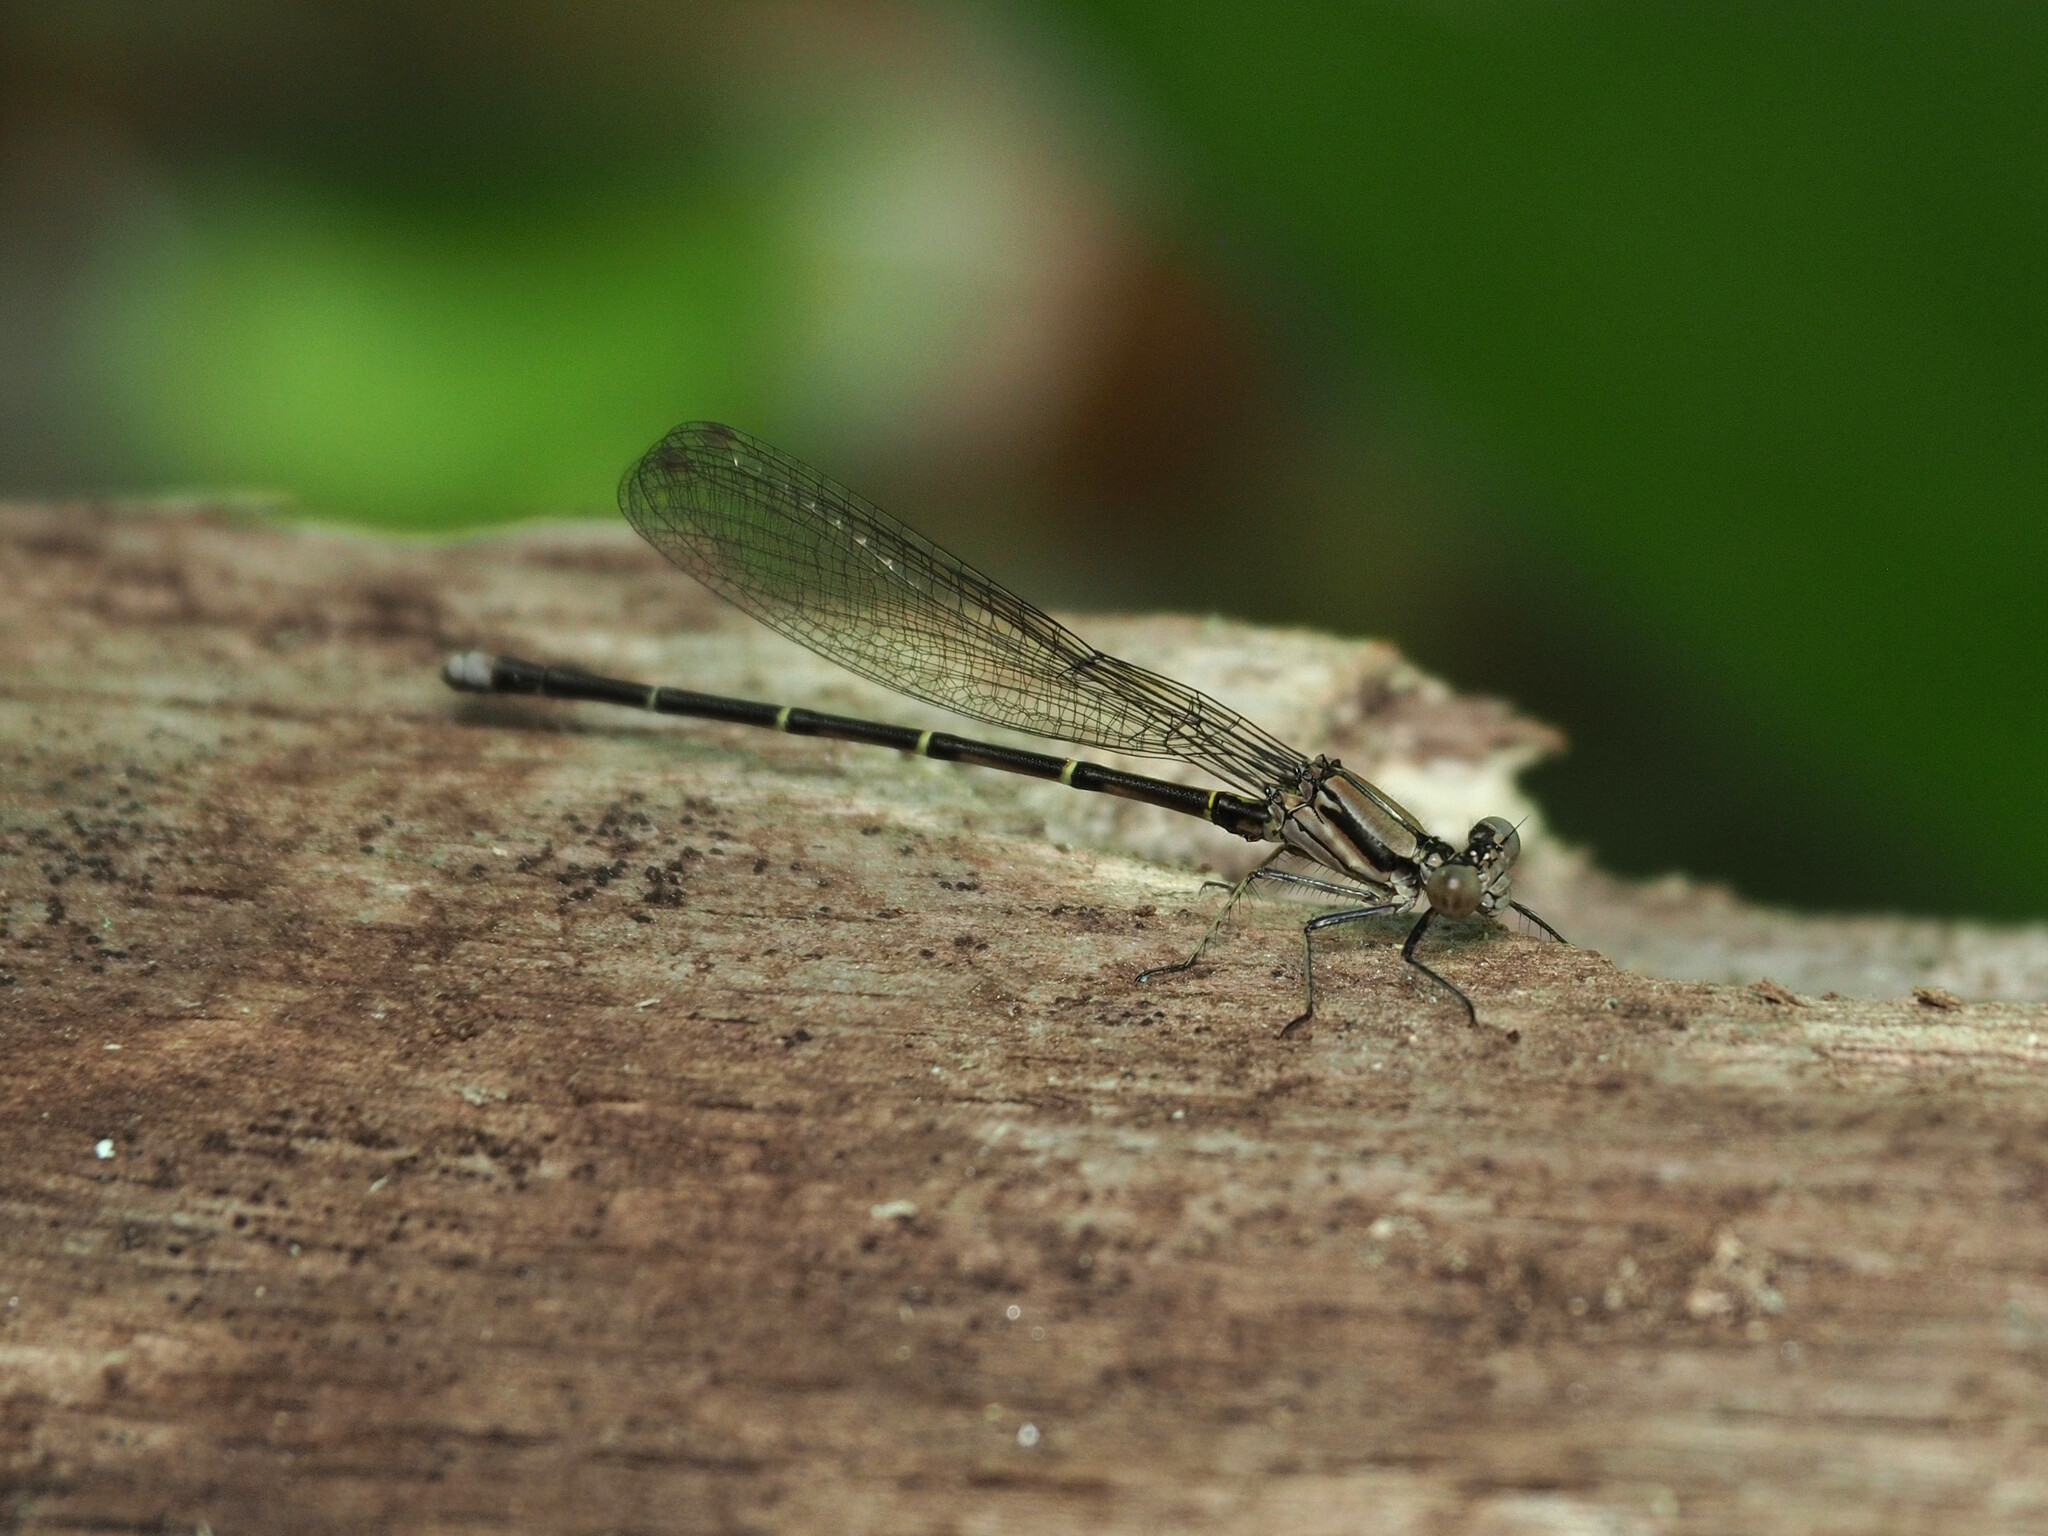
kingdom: Animalia
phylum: Arthropoda
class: Insecta
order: Odonata
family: Coenagrionidae
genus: Argia
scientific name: Argia tibialis
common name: Blue-tipped dancer
